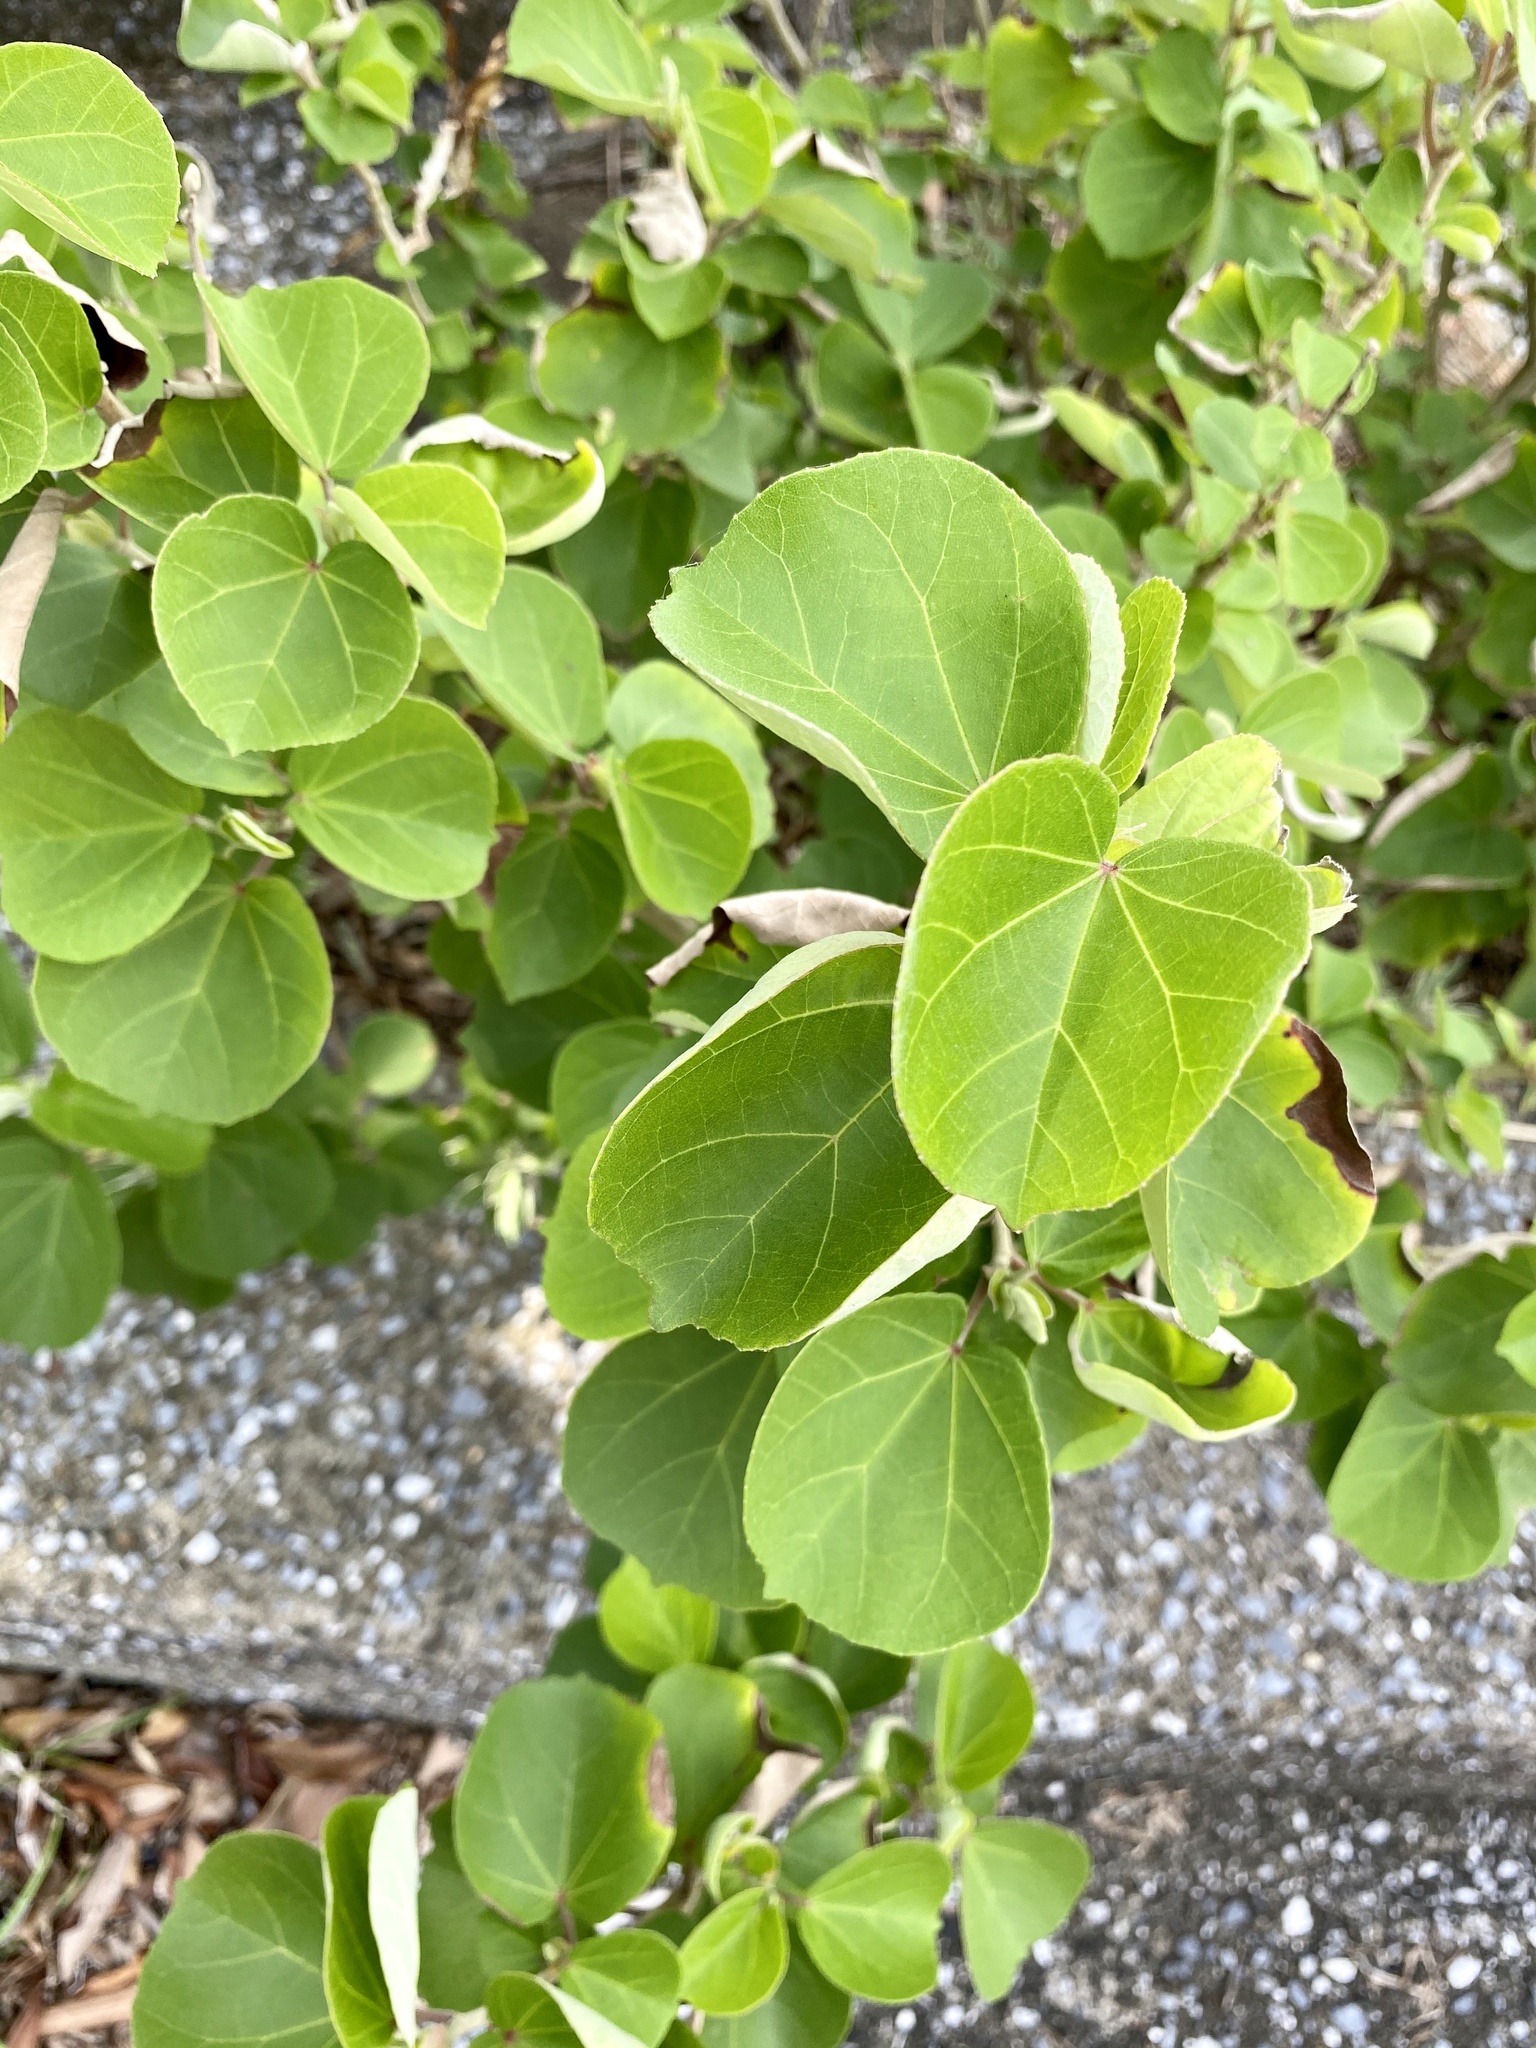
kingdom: Plantae
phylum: Tracheophyta
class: Magnoliopsida
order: Malvales
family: Malvaceae
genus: Talipariti
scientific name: Talipariti hamabo
